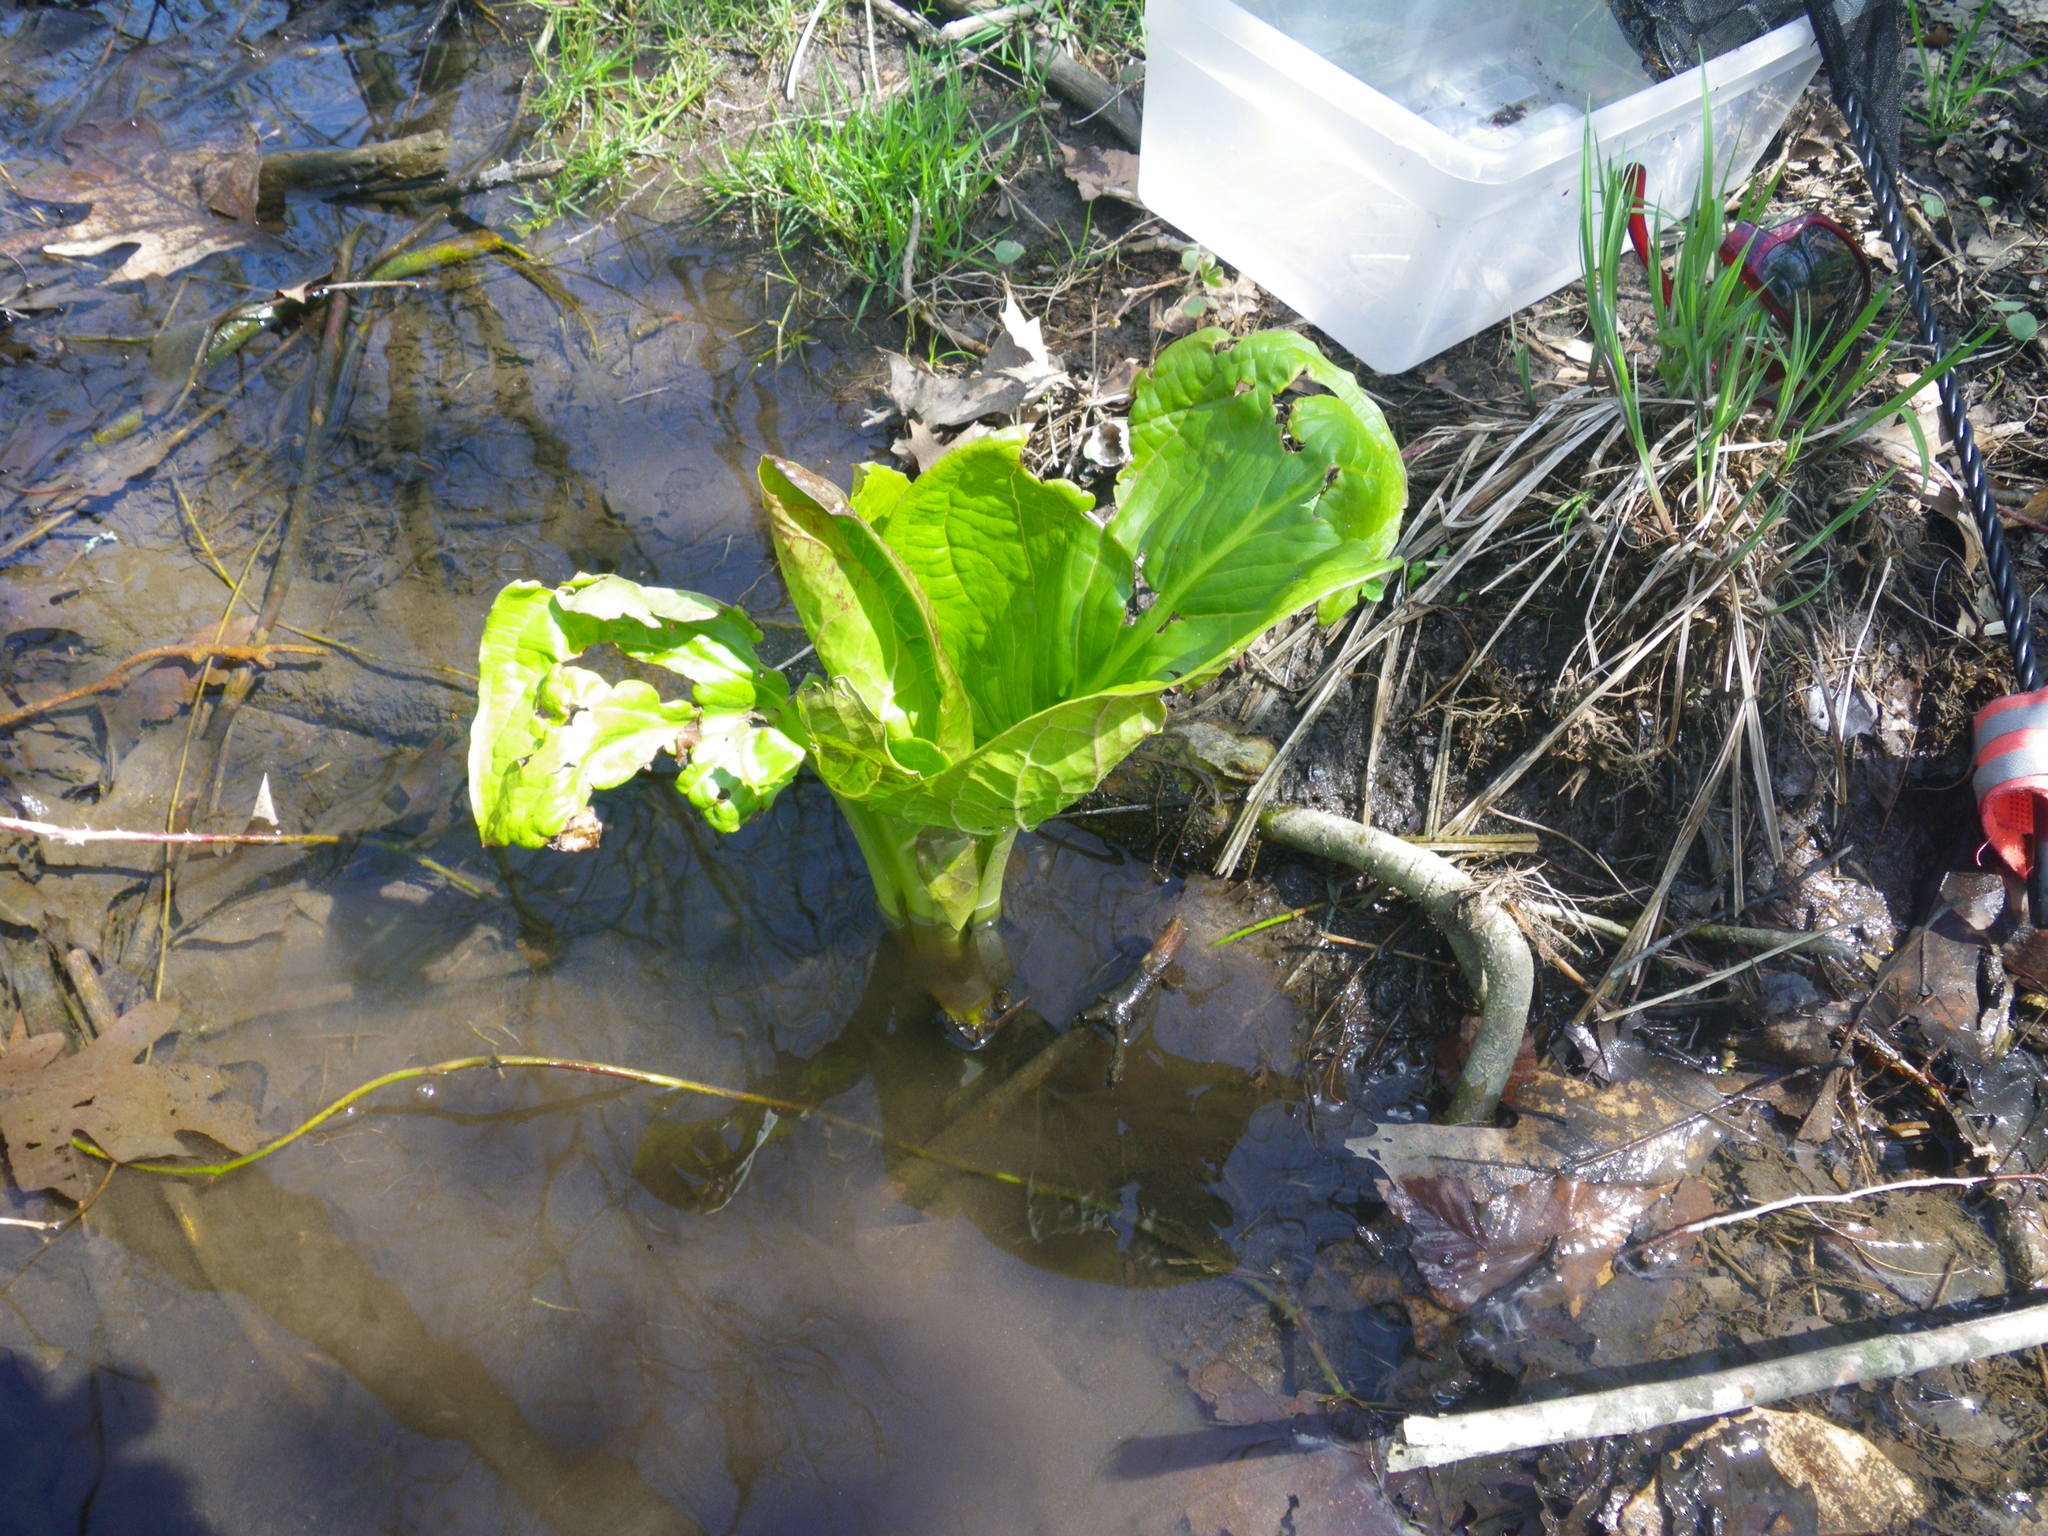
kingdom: Plantae
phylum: Tracheophyta
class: Liliopsida
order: Alismatales
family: Araceae
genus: Symplocarpus
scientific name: Symplocarpus foetidus
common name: Eastern skunk cabbage
